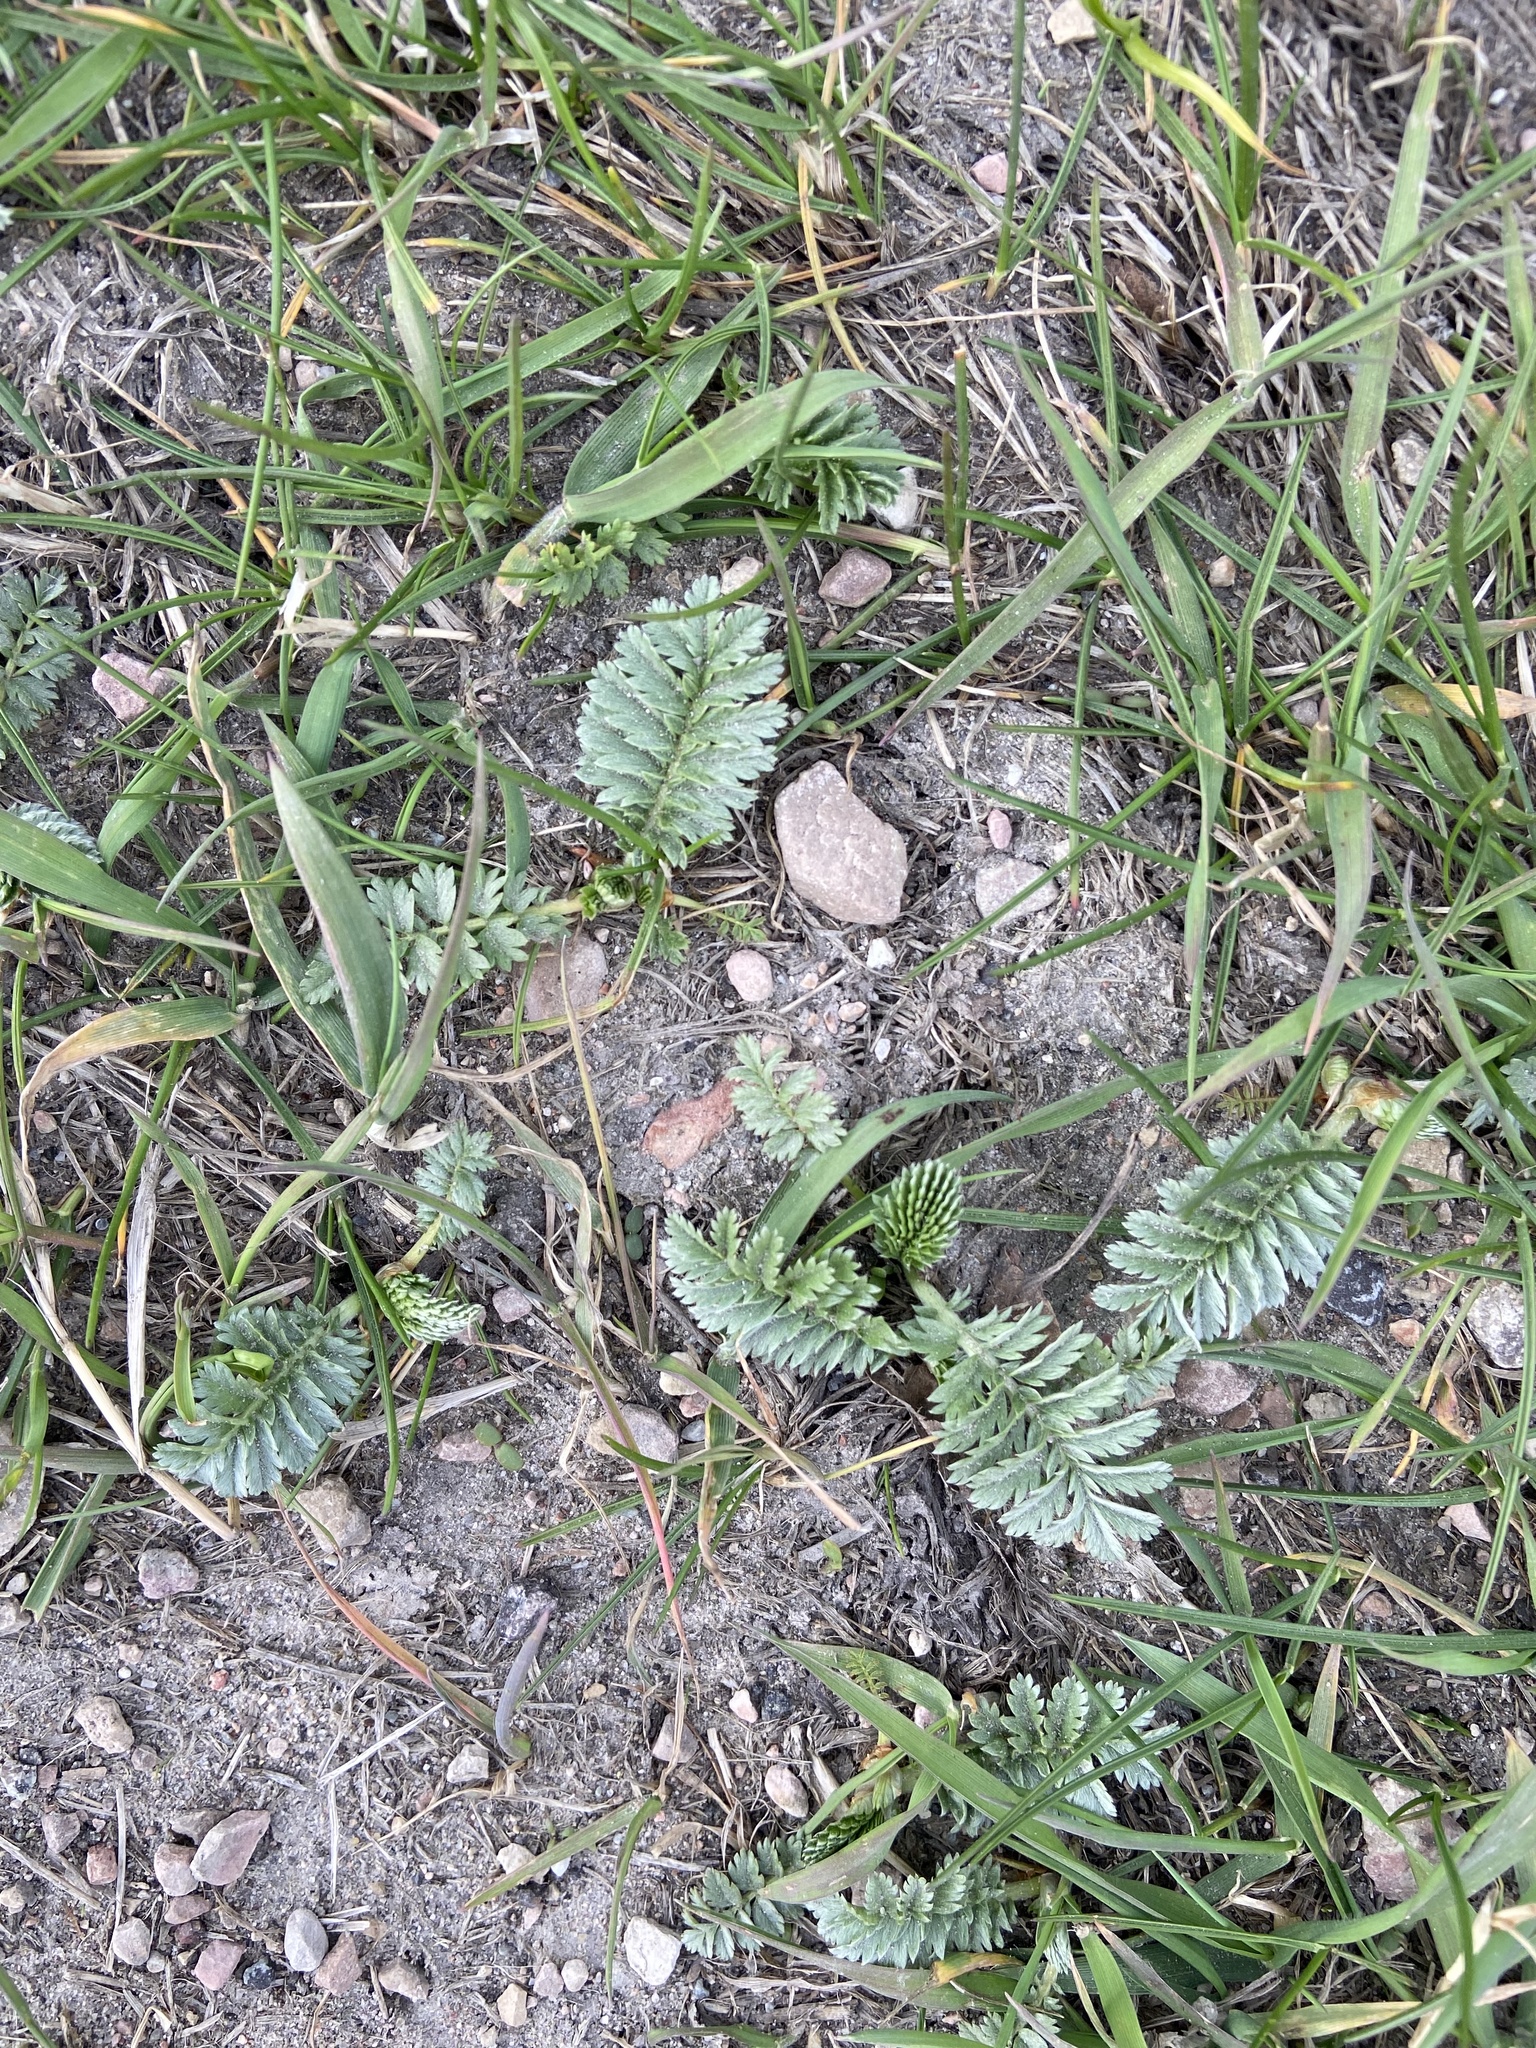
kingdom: Plantae
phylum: Tracheophyta
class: Magnoliopsida
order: Rosales
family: Rosaceae
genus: Argentina
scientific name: Argentina anserina
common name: Common silverweed
